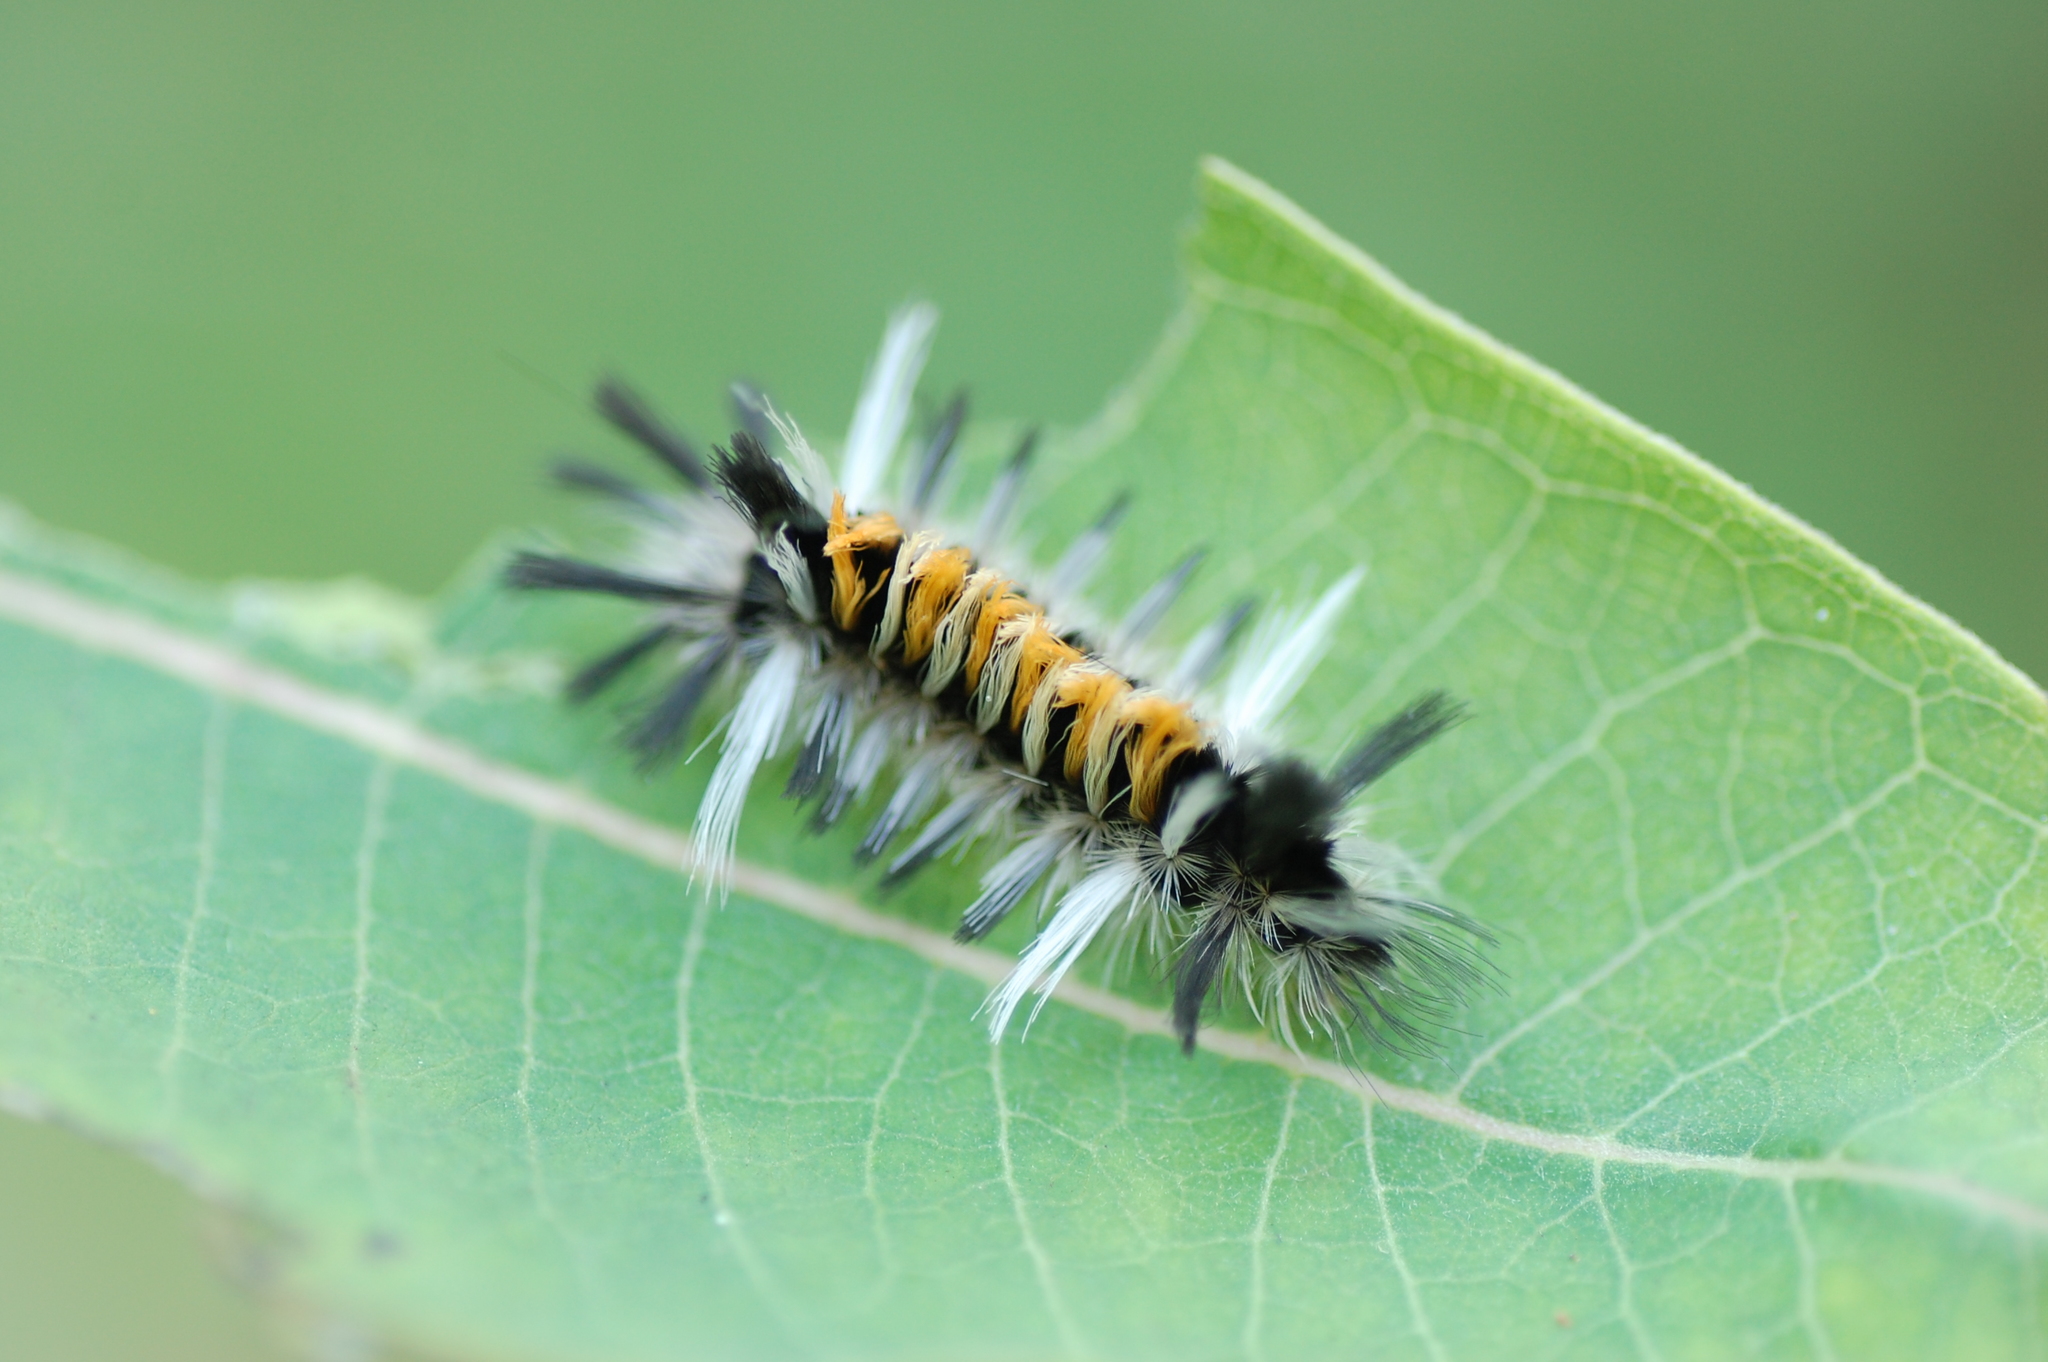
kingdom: Animalia
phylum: Arthropoda
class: Insecta
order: Lepidoptera
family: Erebidae
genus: Euchaetes
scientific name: Euchaetes egle
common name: Milkweed tussock moth
